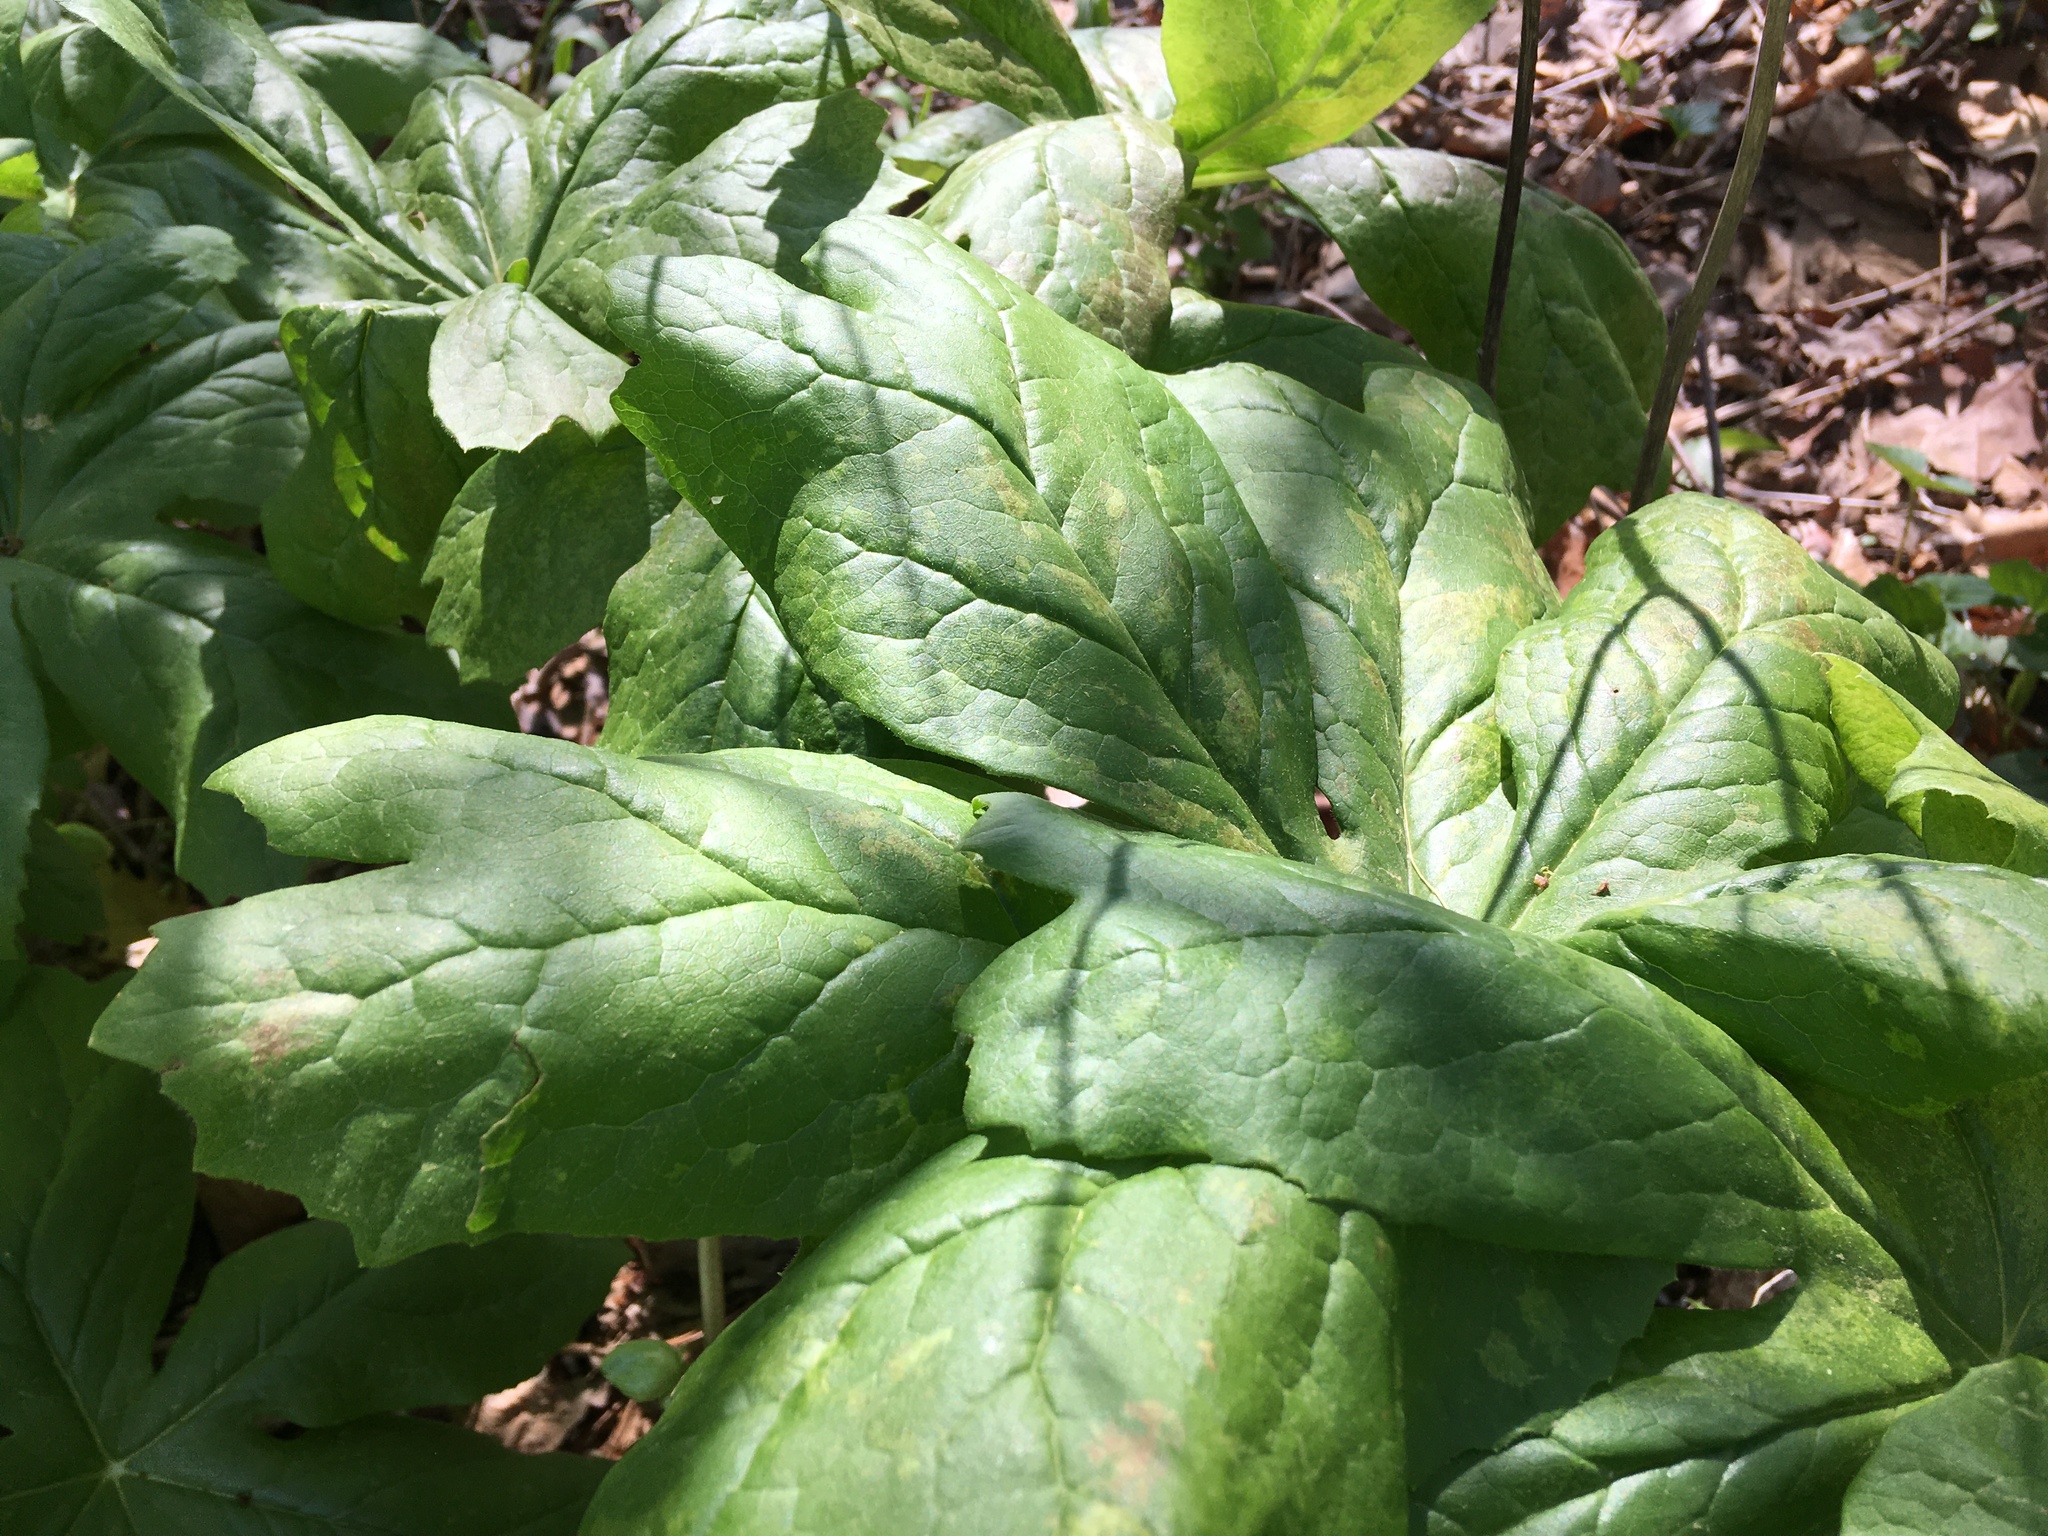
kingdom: Plantae
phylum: Tracheophyta
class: Magnoliopsida
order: Ranunculales
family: Berberidaceae
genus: Podophyllum
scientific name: Podophyllum peltatum
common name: Wild mandrake
